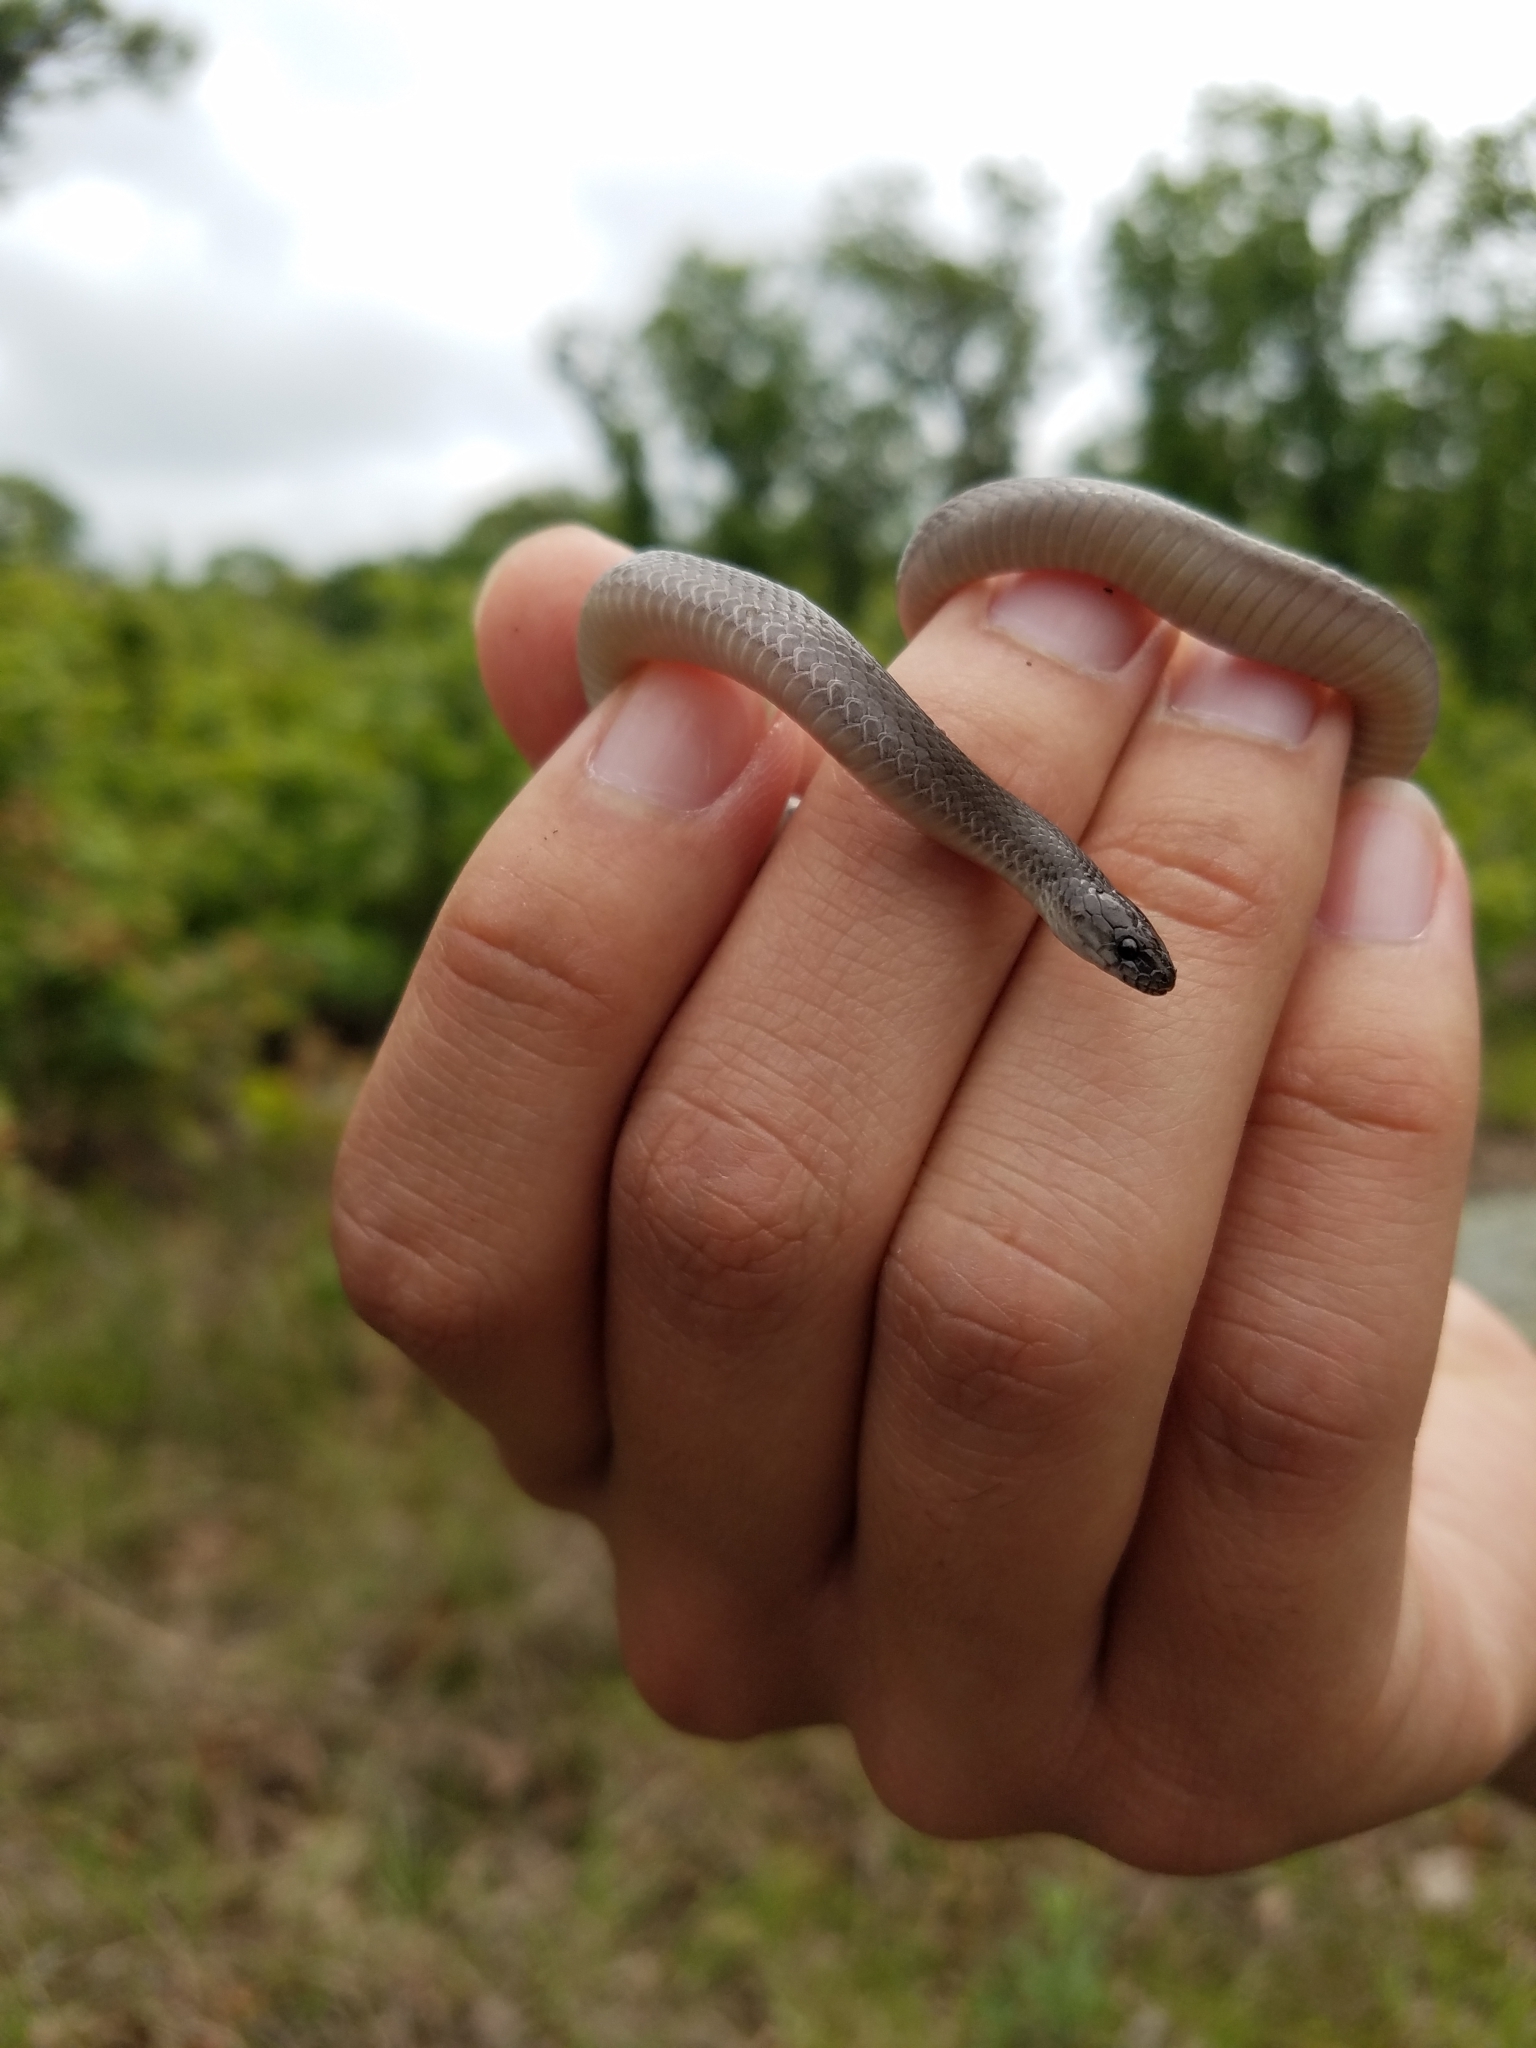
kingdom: Animalia
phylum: Chordata
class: Squamata
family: Colubridae
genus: Haldea
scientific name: Haldea striatula
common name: Rough earth snake
